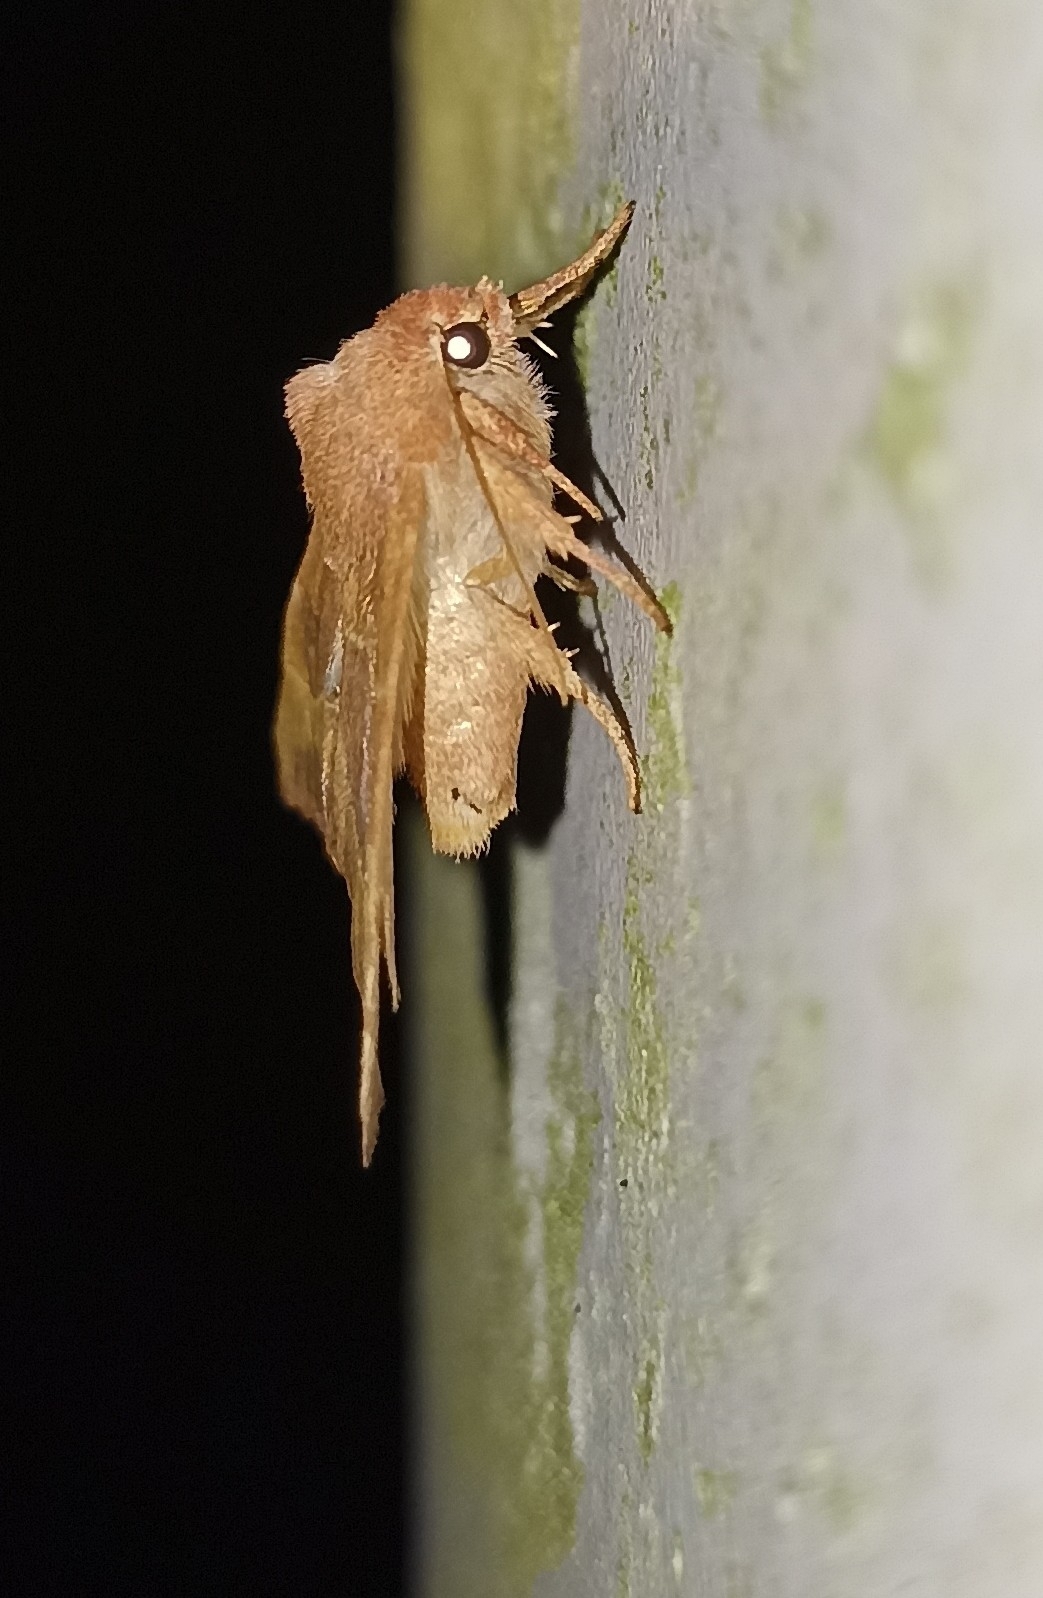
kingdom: Animalia
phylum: Arthropoda
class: Insecta
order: Lepidoptera
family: Noctuidae
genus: Atethmia
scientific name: Atethmia centrago
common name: Centre-barred sallow
